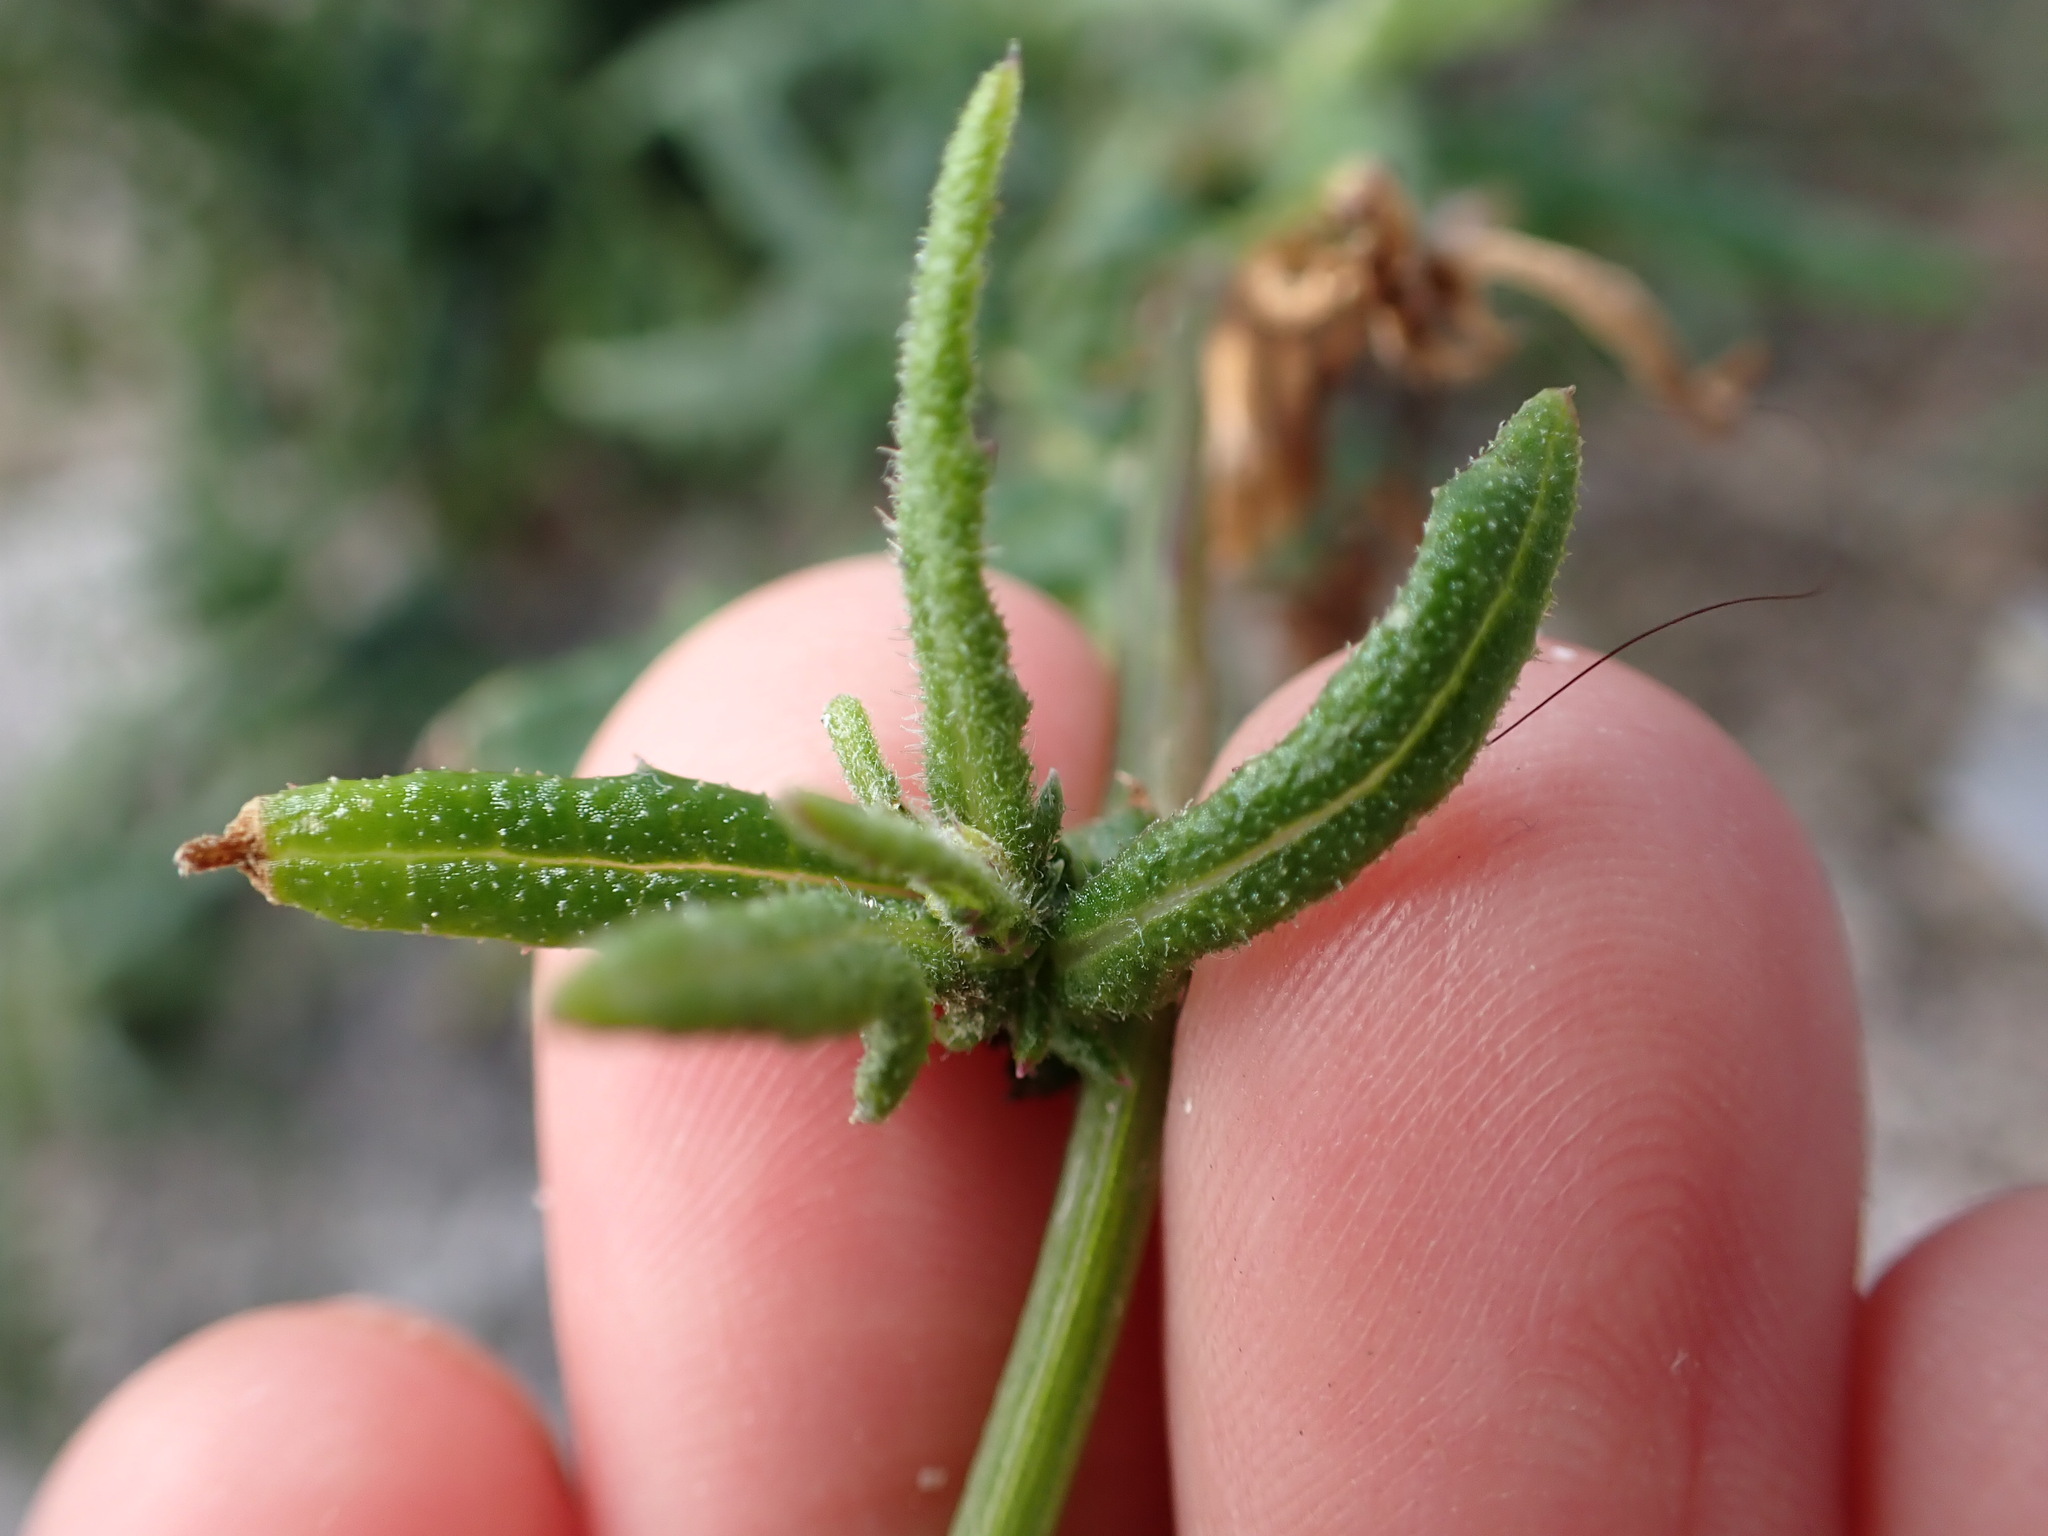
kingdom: Plantae
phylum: Tracheophyta
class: Magnoliopsida
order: Asterales
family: Asteraceae
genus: Senecio
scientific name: Senecio hispidulus
